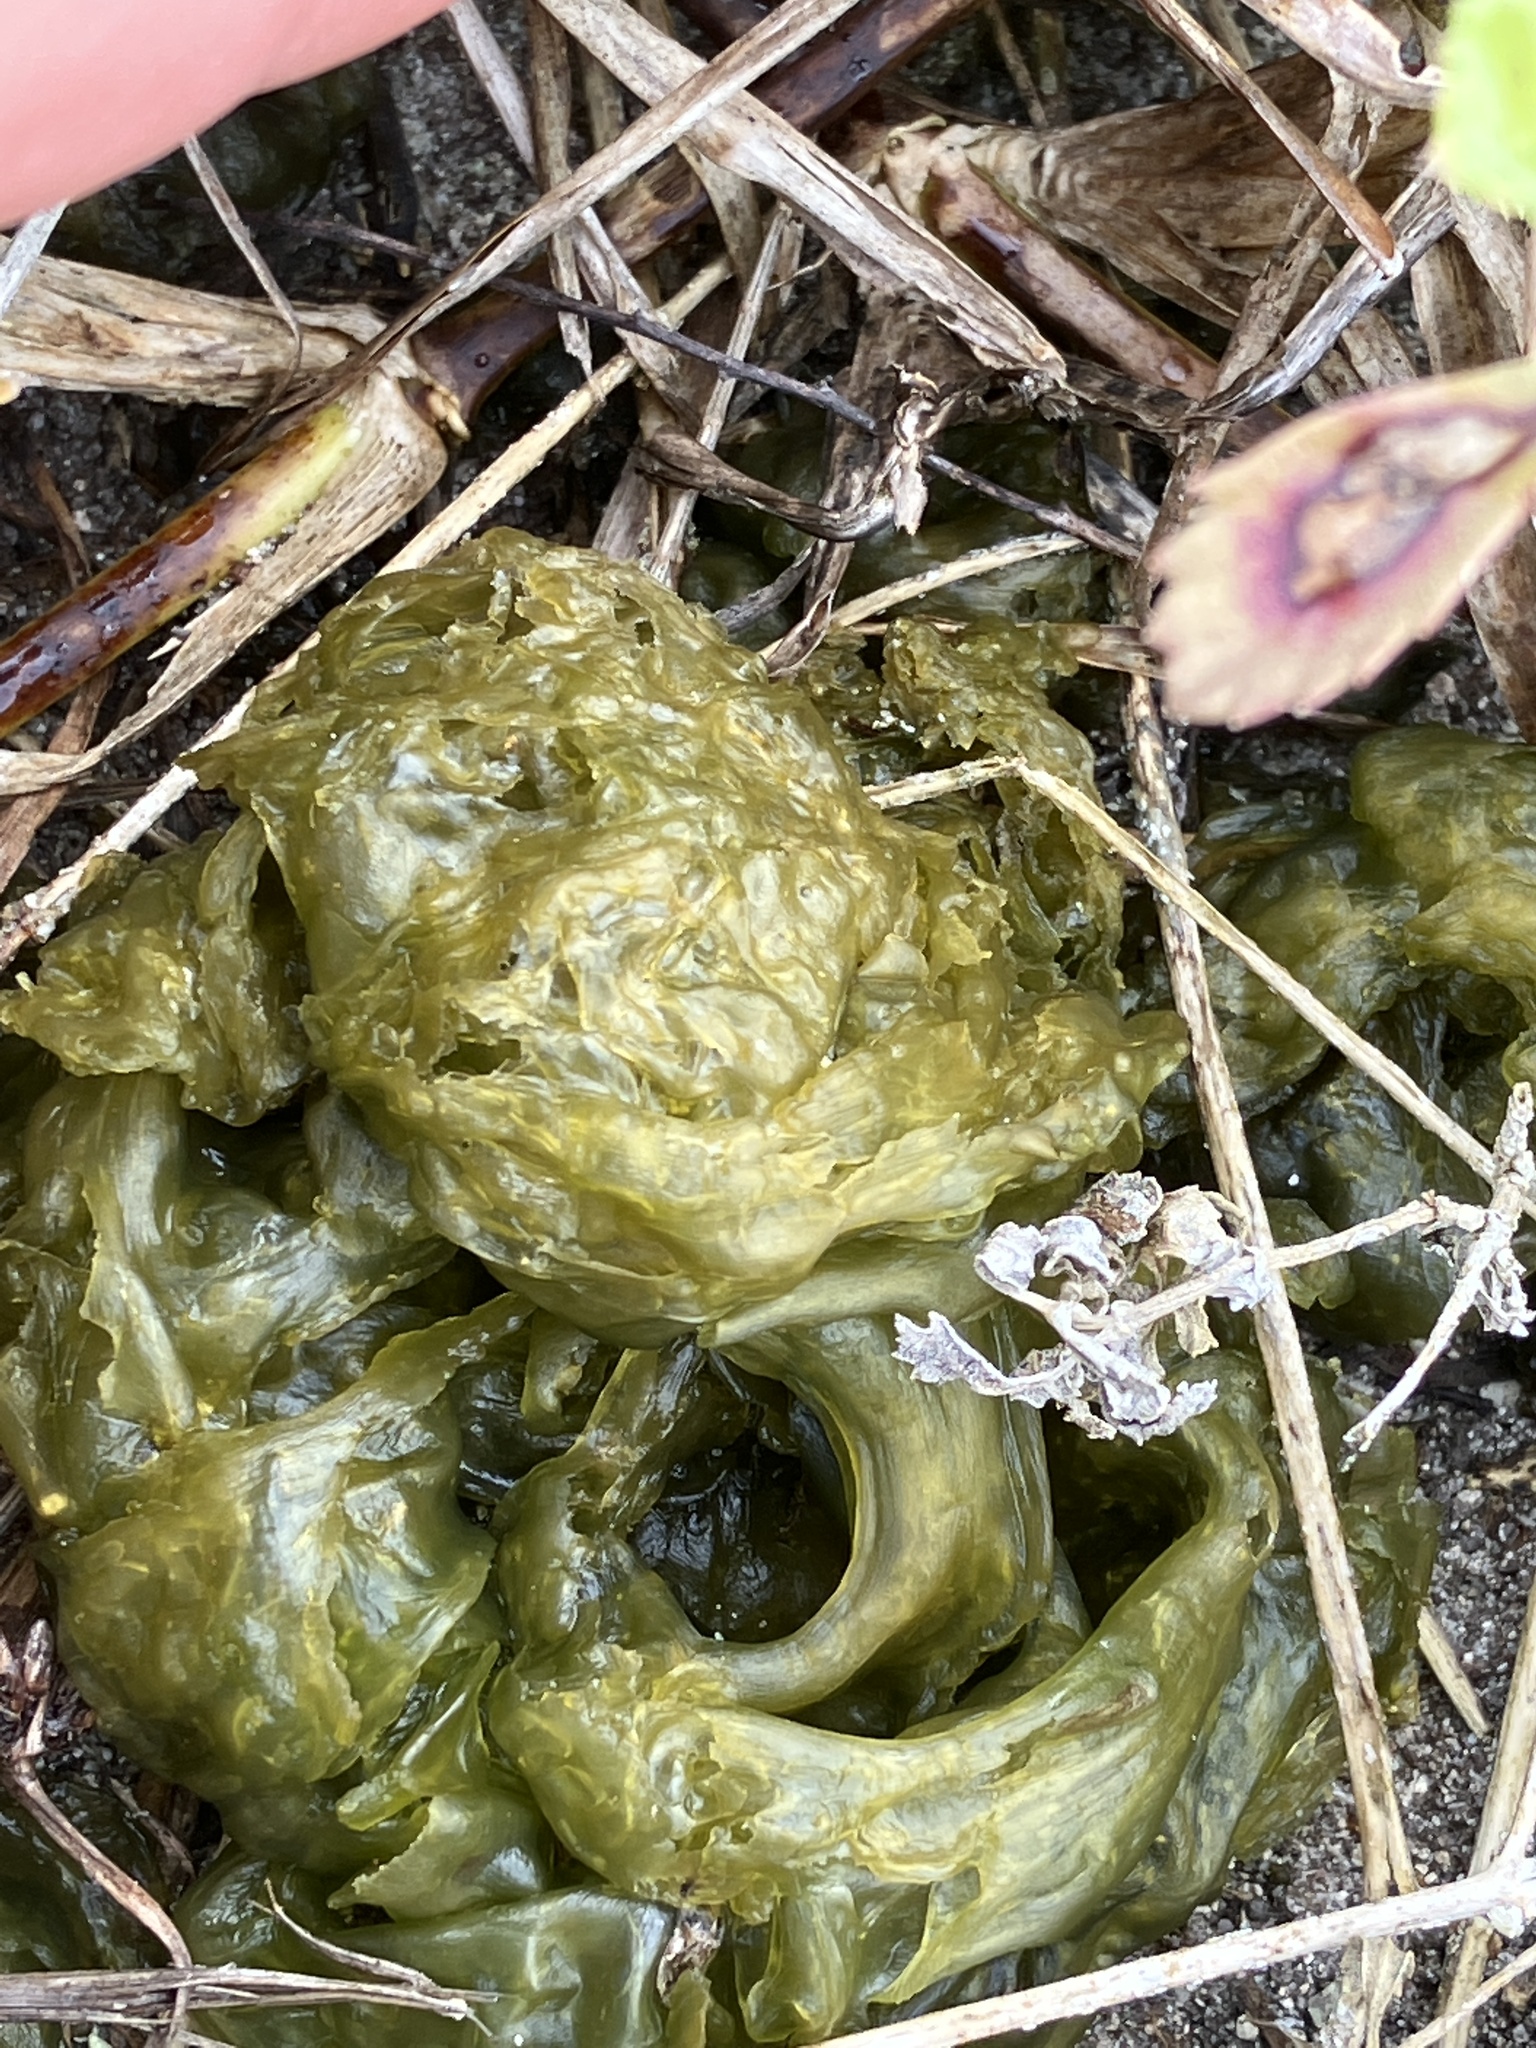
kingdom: Bacteria
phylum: Cyanobacteria
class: Cyanobacteriia
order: Cyanobacteriales
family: Nostocaceae
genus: Nostoc
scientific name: Nostoc commune
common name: Star jelly
